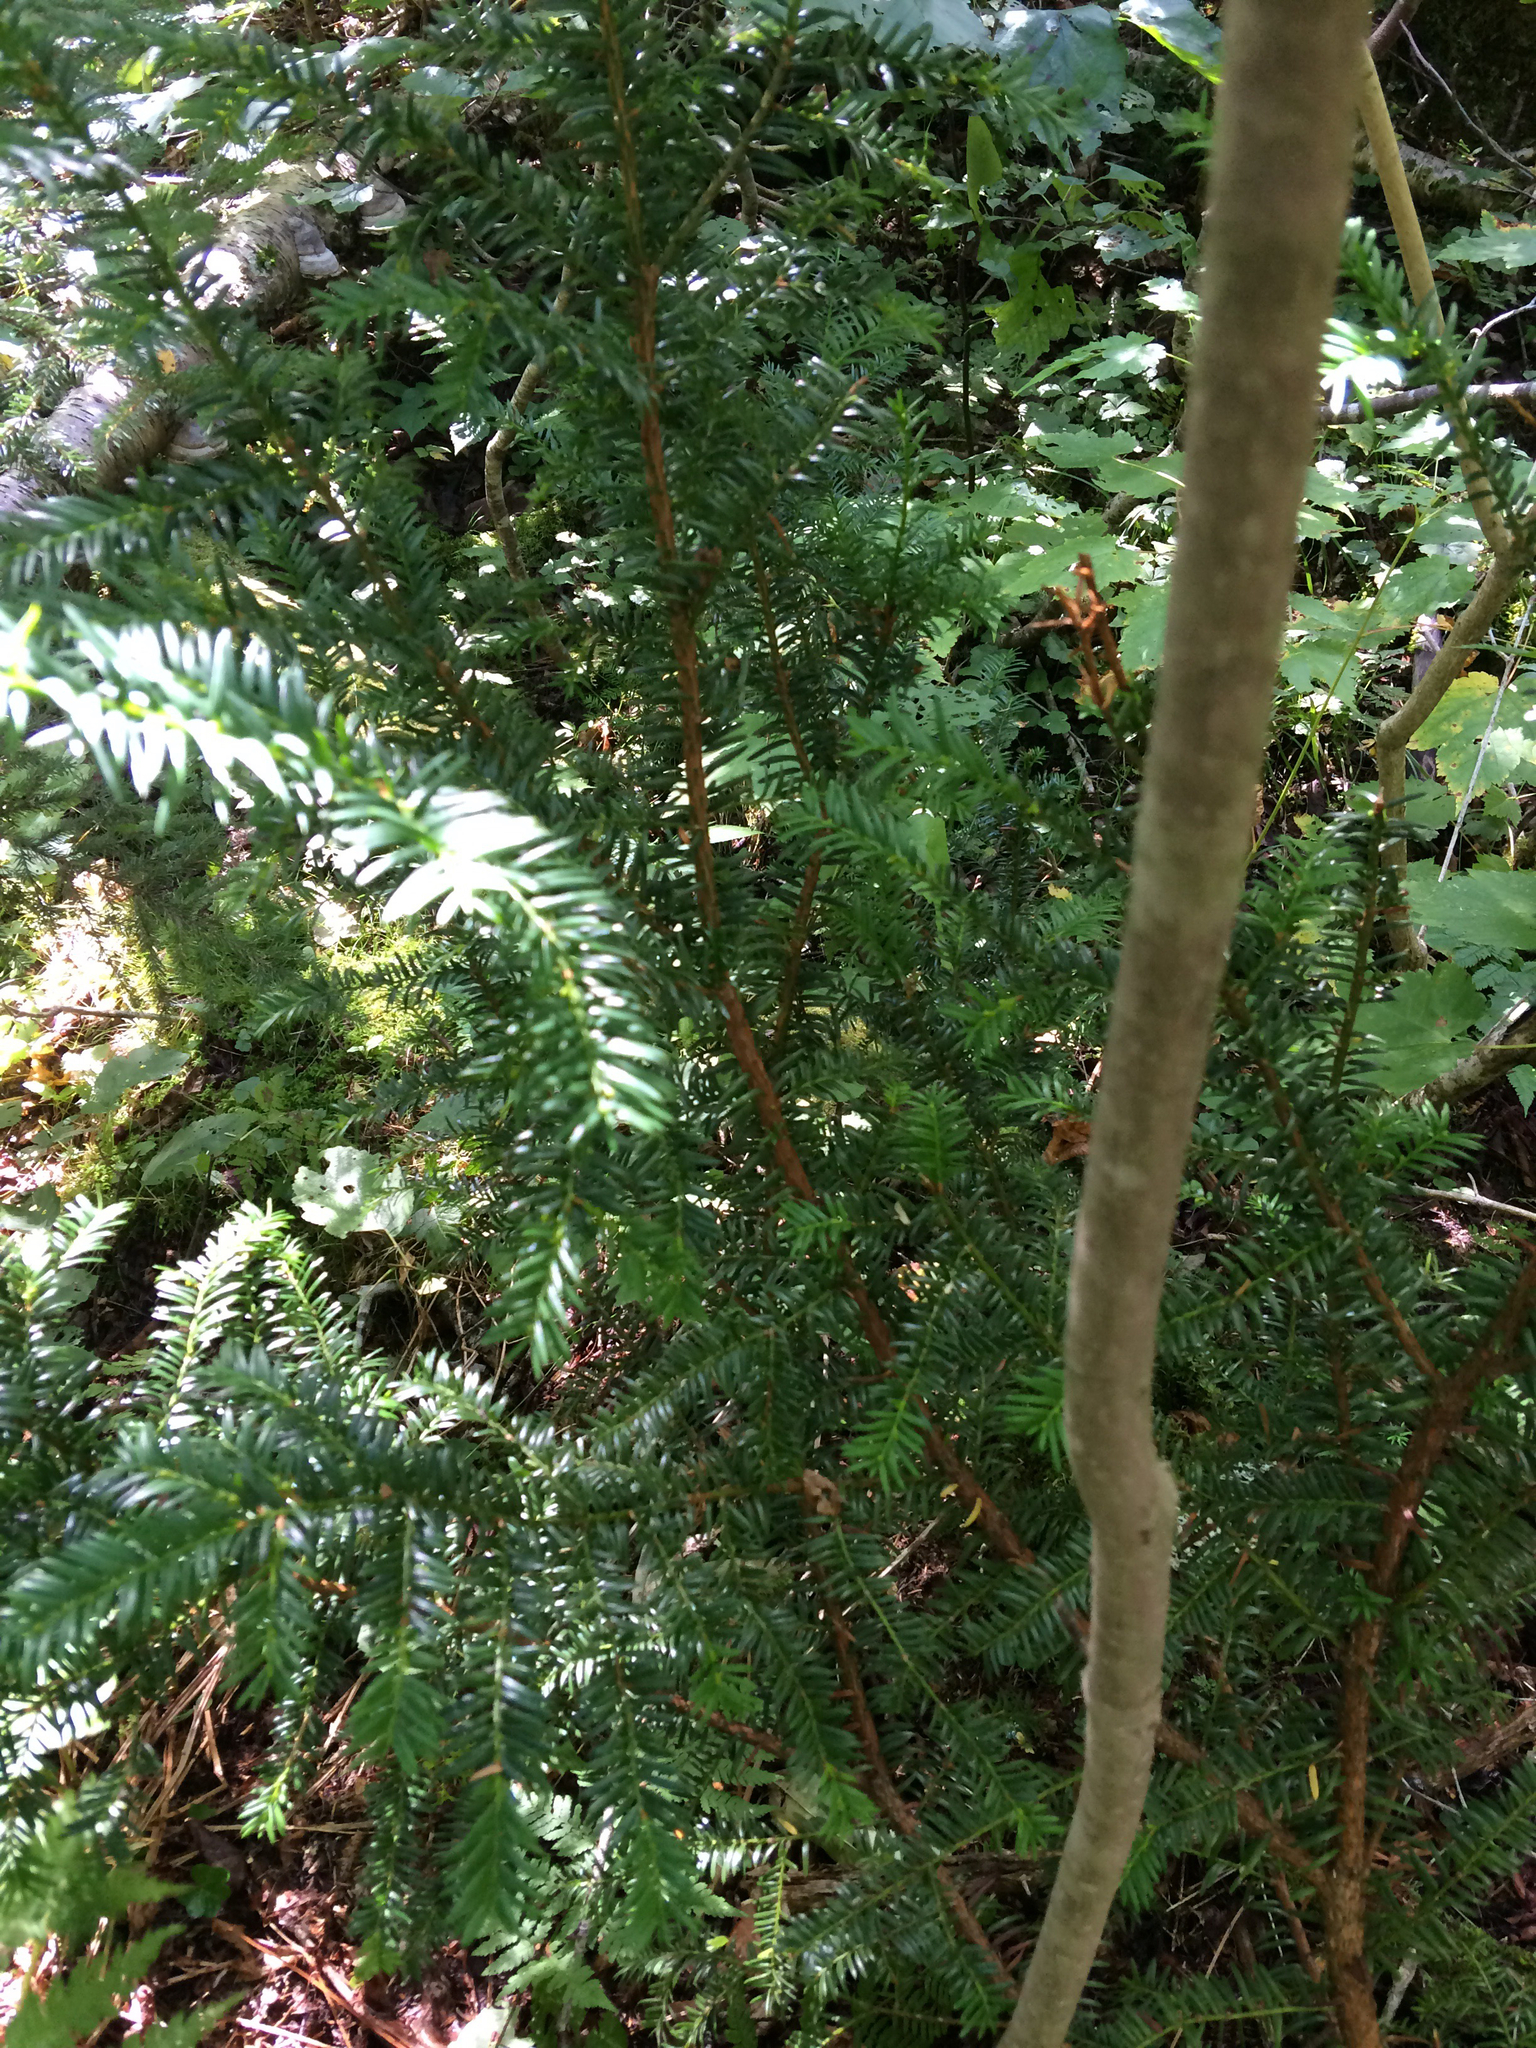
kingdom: Plantae
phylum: Tracheophyta
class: Pinopsida
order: Pinales
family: Taxaceae
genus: Taxus
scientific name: Taxus canadensis
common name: American yew
